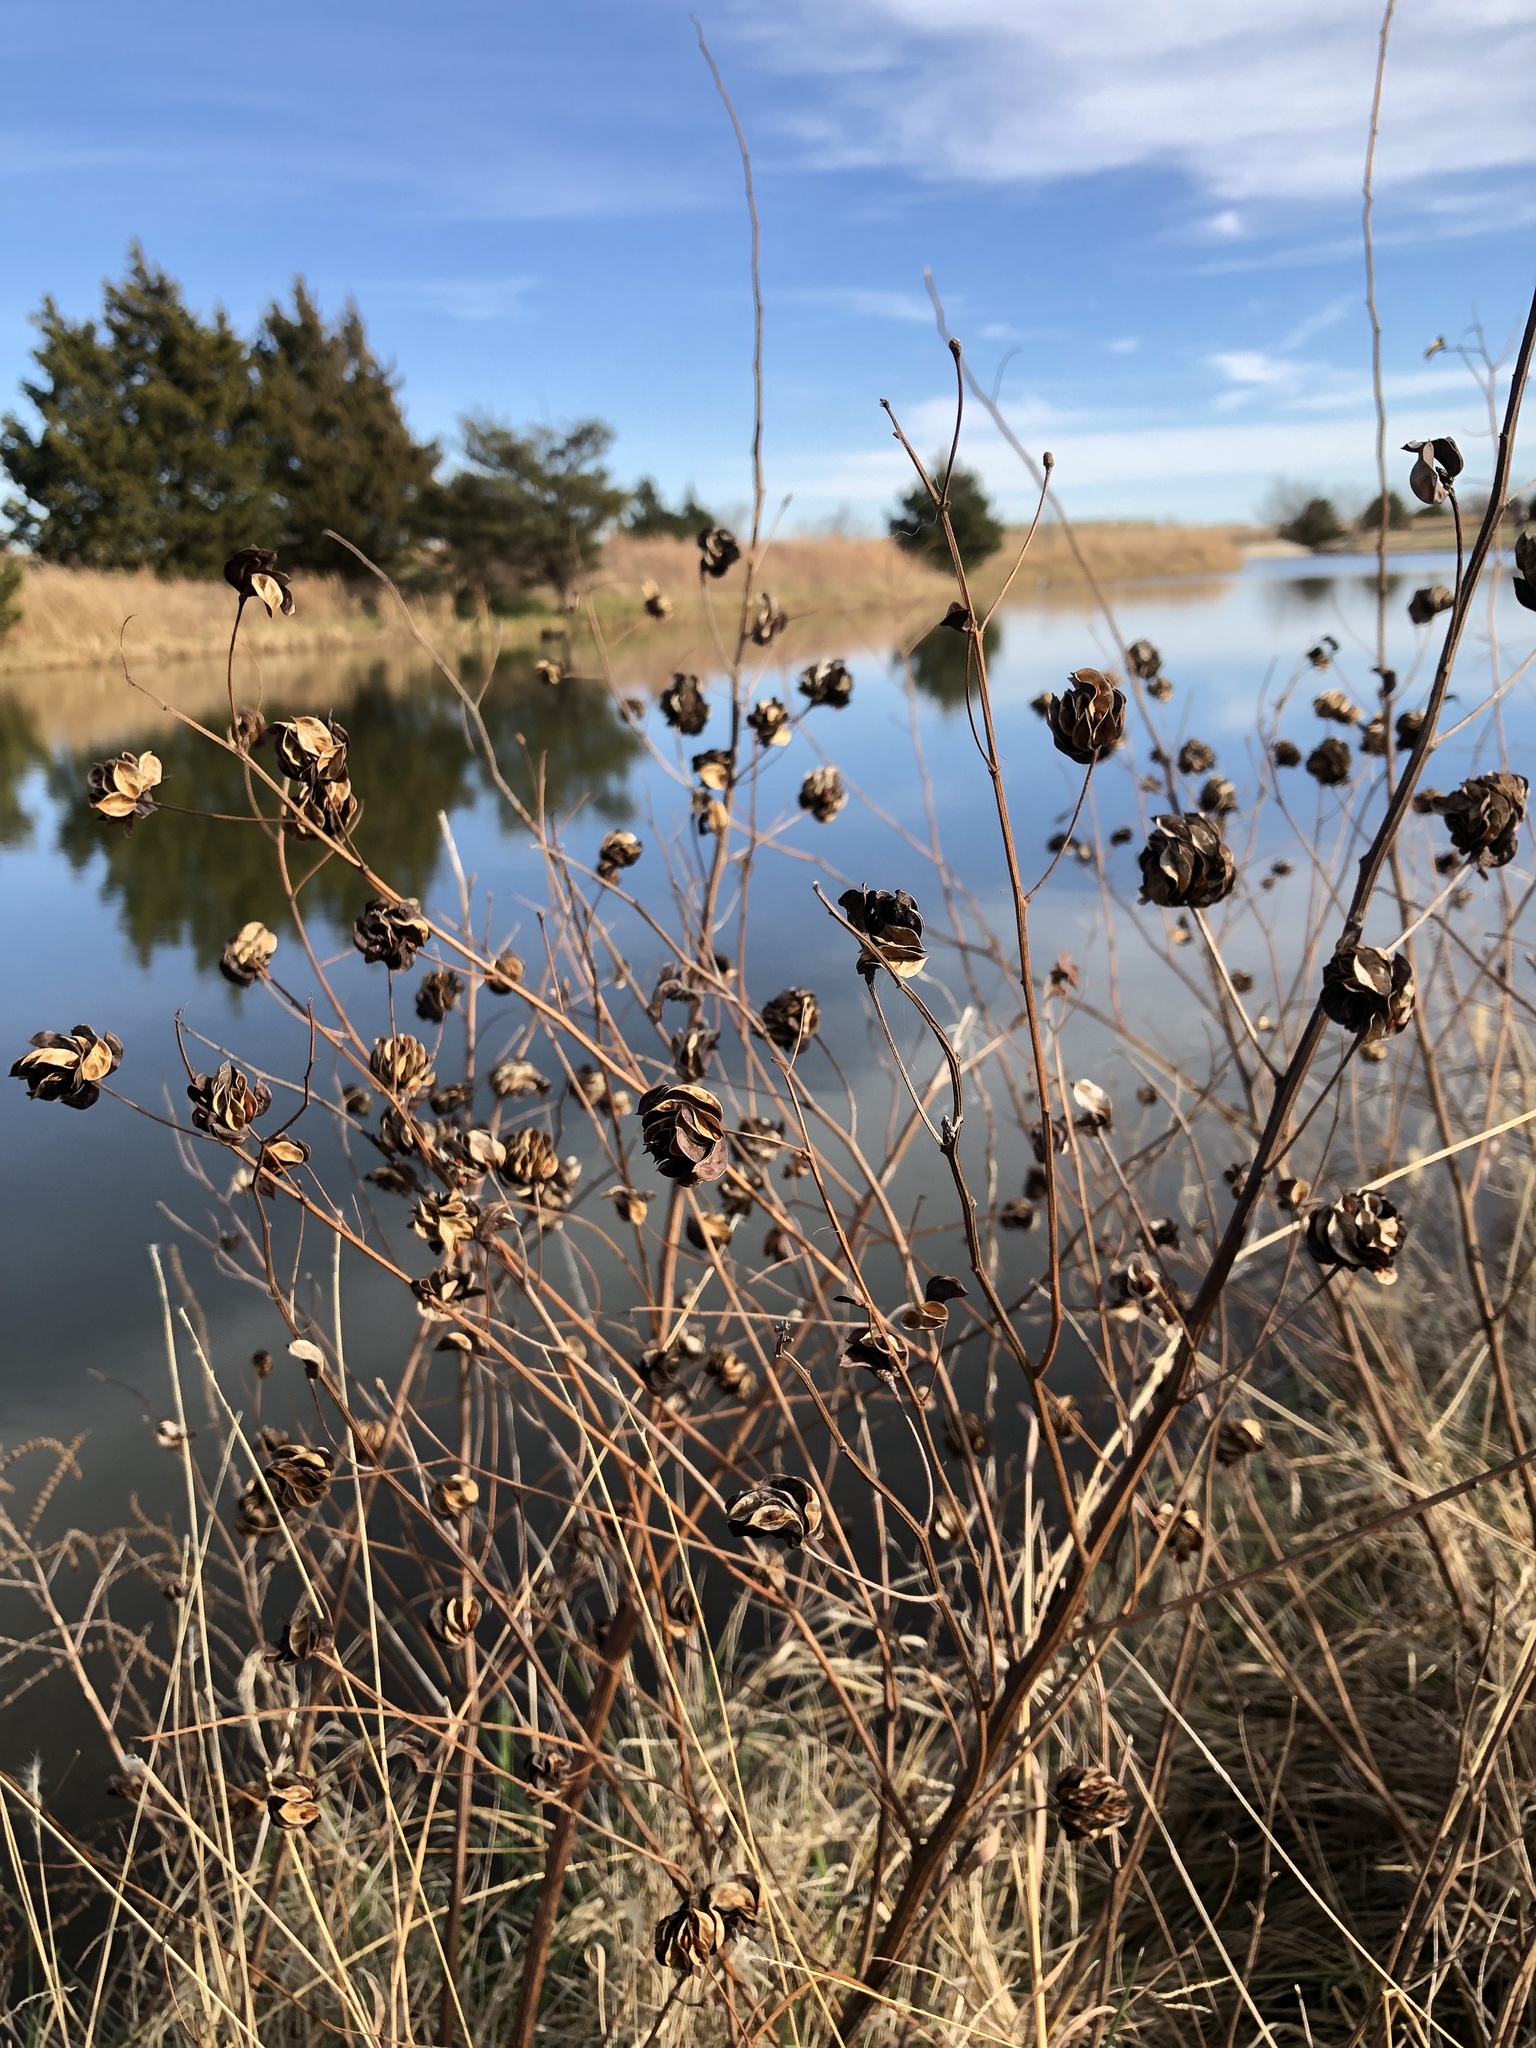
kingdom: Plantae
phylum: Tracheophyta
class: Magnoliopsida
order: Fabales
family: Fabaceae
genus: Desmanthus
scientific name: Desmanthus illinoensis
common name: Illinois bundle-flower
